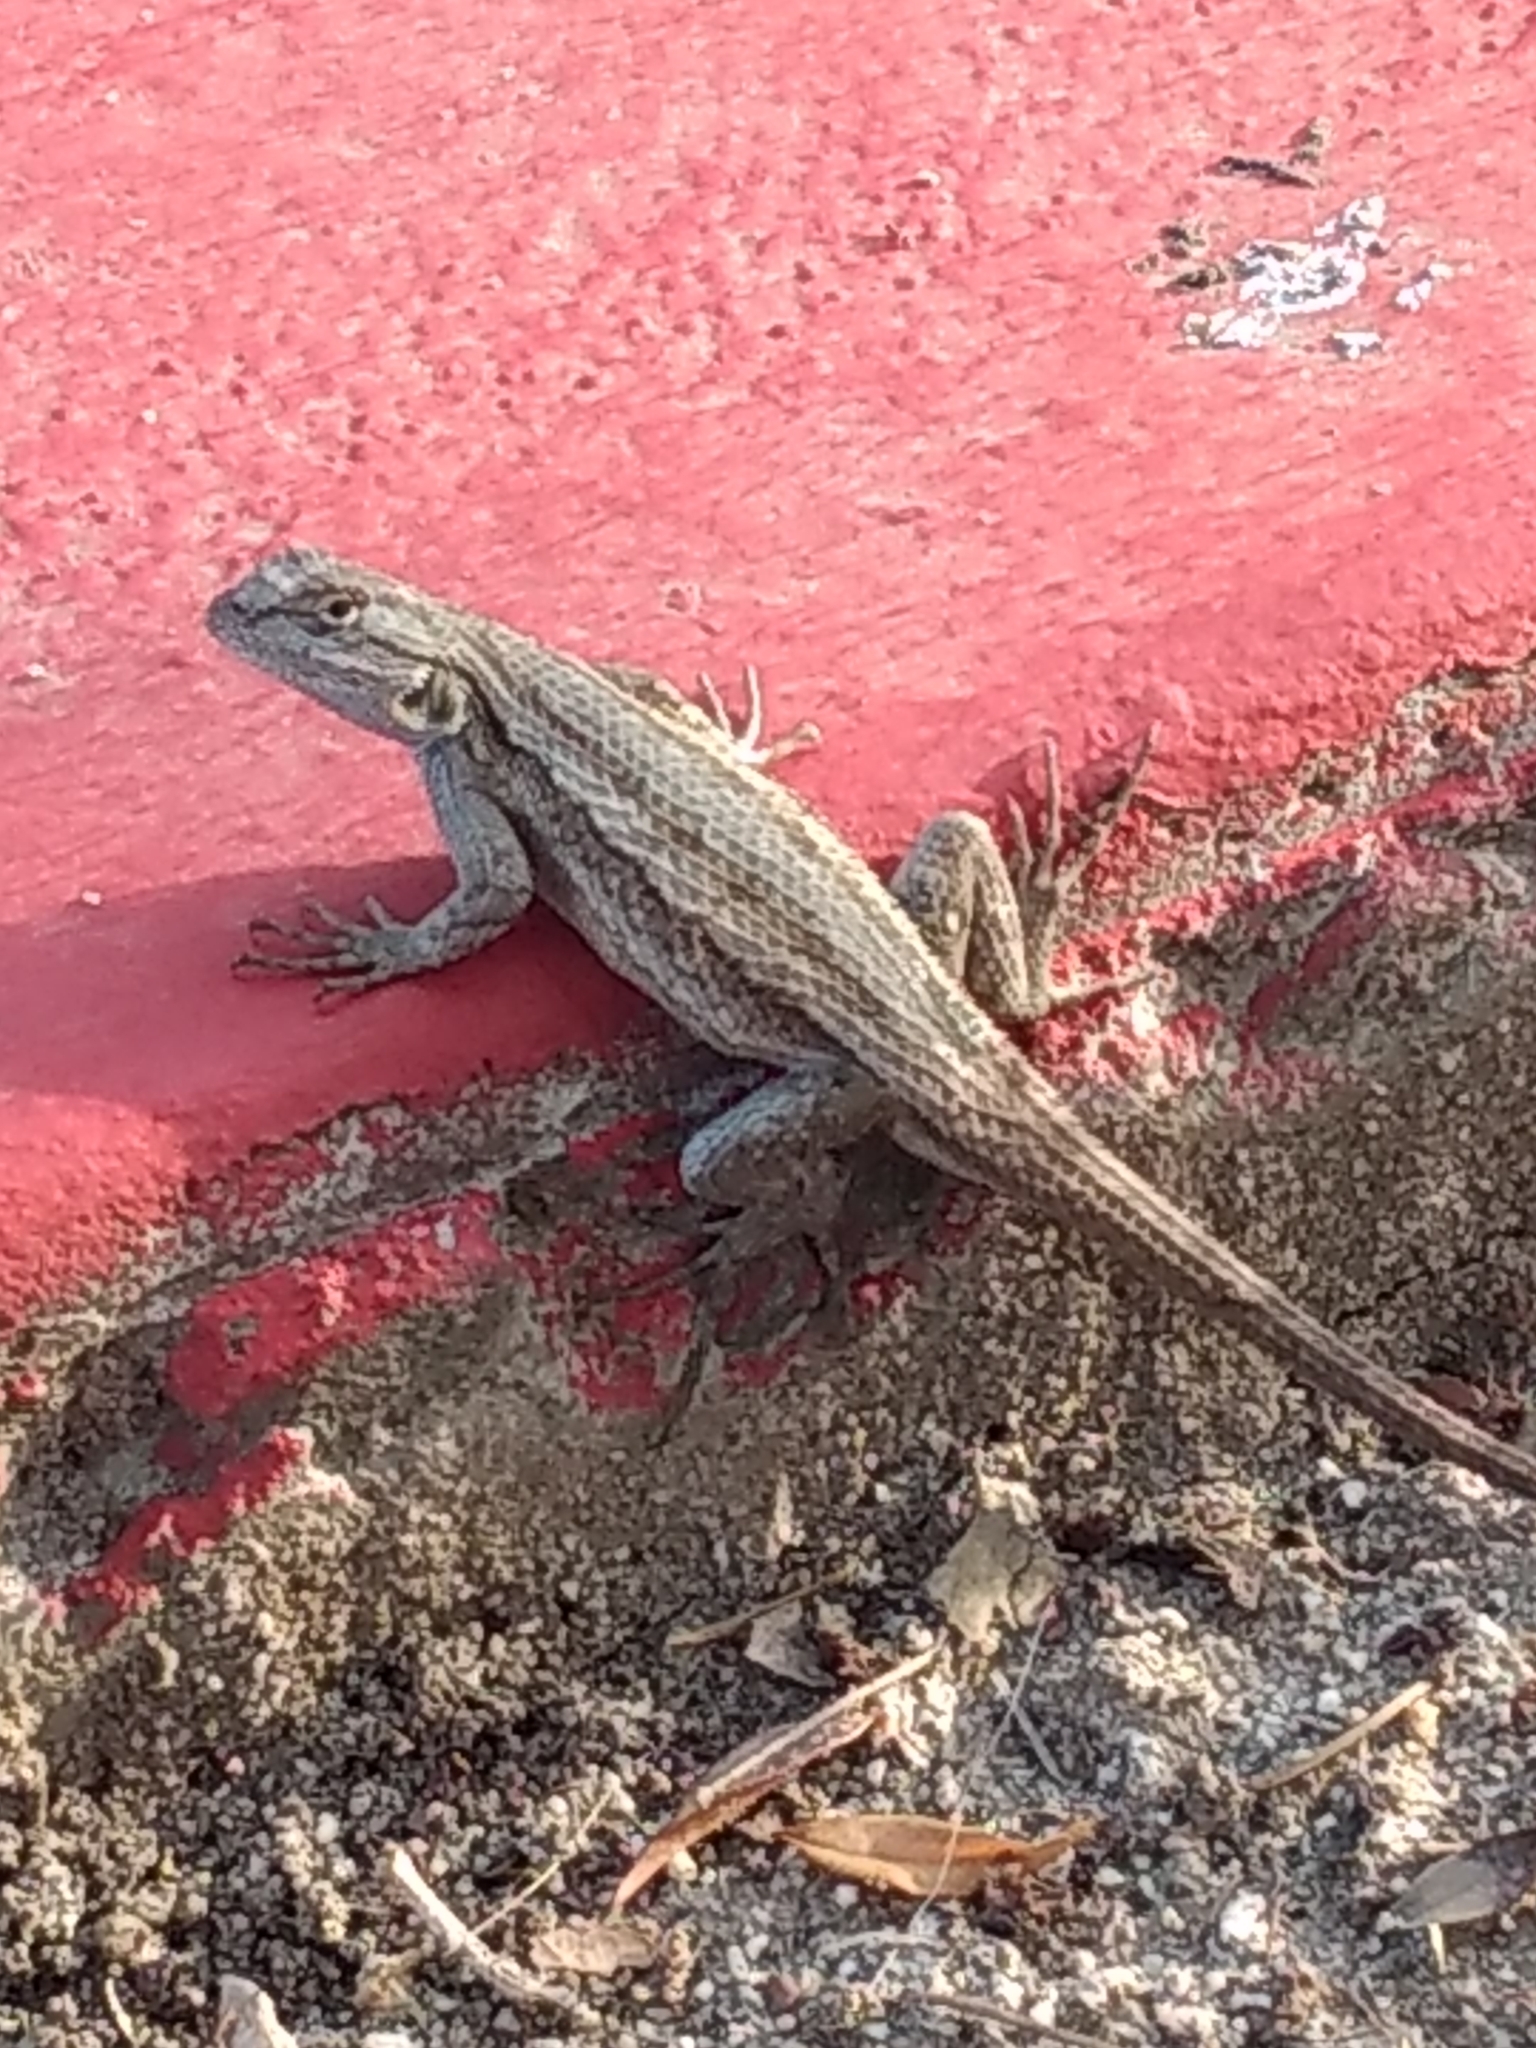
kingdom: Animalia
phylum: Chordata
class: Squamata
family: Phrynosomatidae
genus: Sceloporus
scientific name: Sceloporus occidentalis
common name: Western fence lizard
